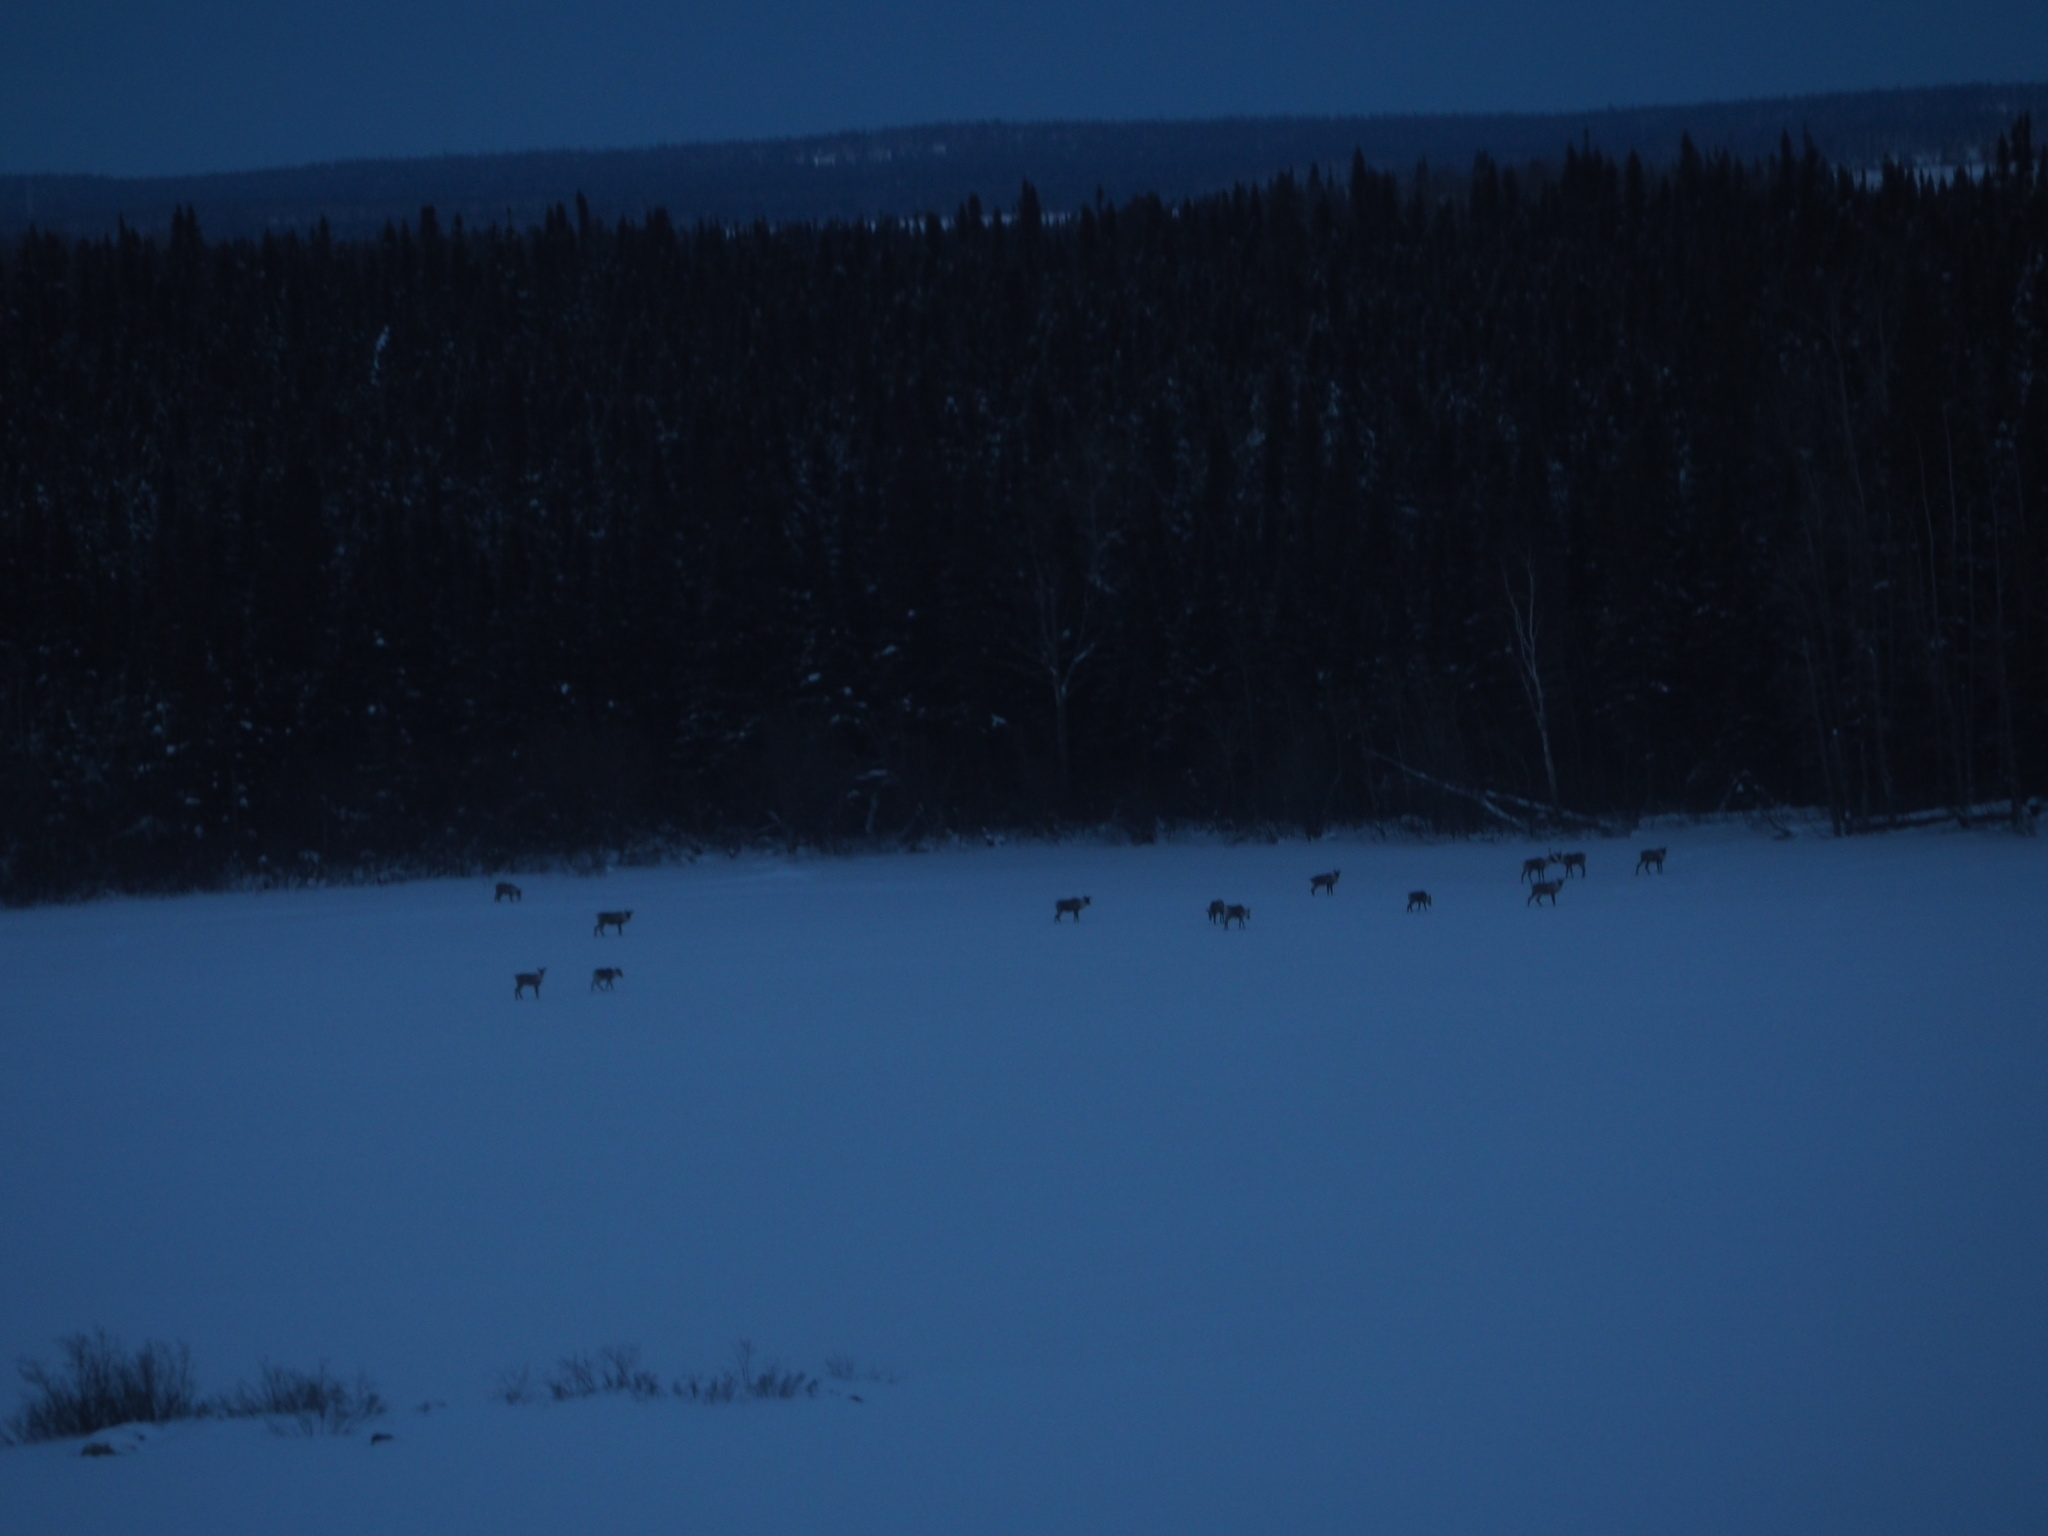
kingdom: Animalia
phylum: Chordata
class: Mammalia
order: Artiodactyla
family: Cervidae
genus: Rangifer
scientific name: Rangifer tarandus
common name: Reindeer
